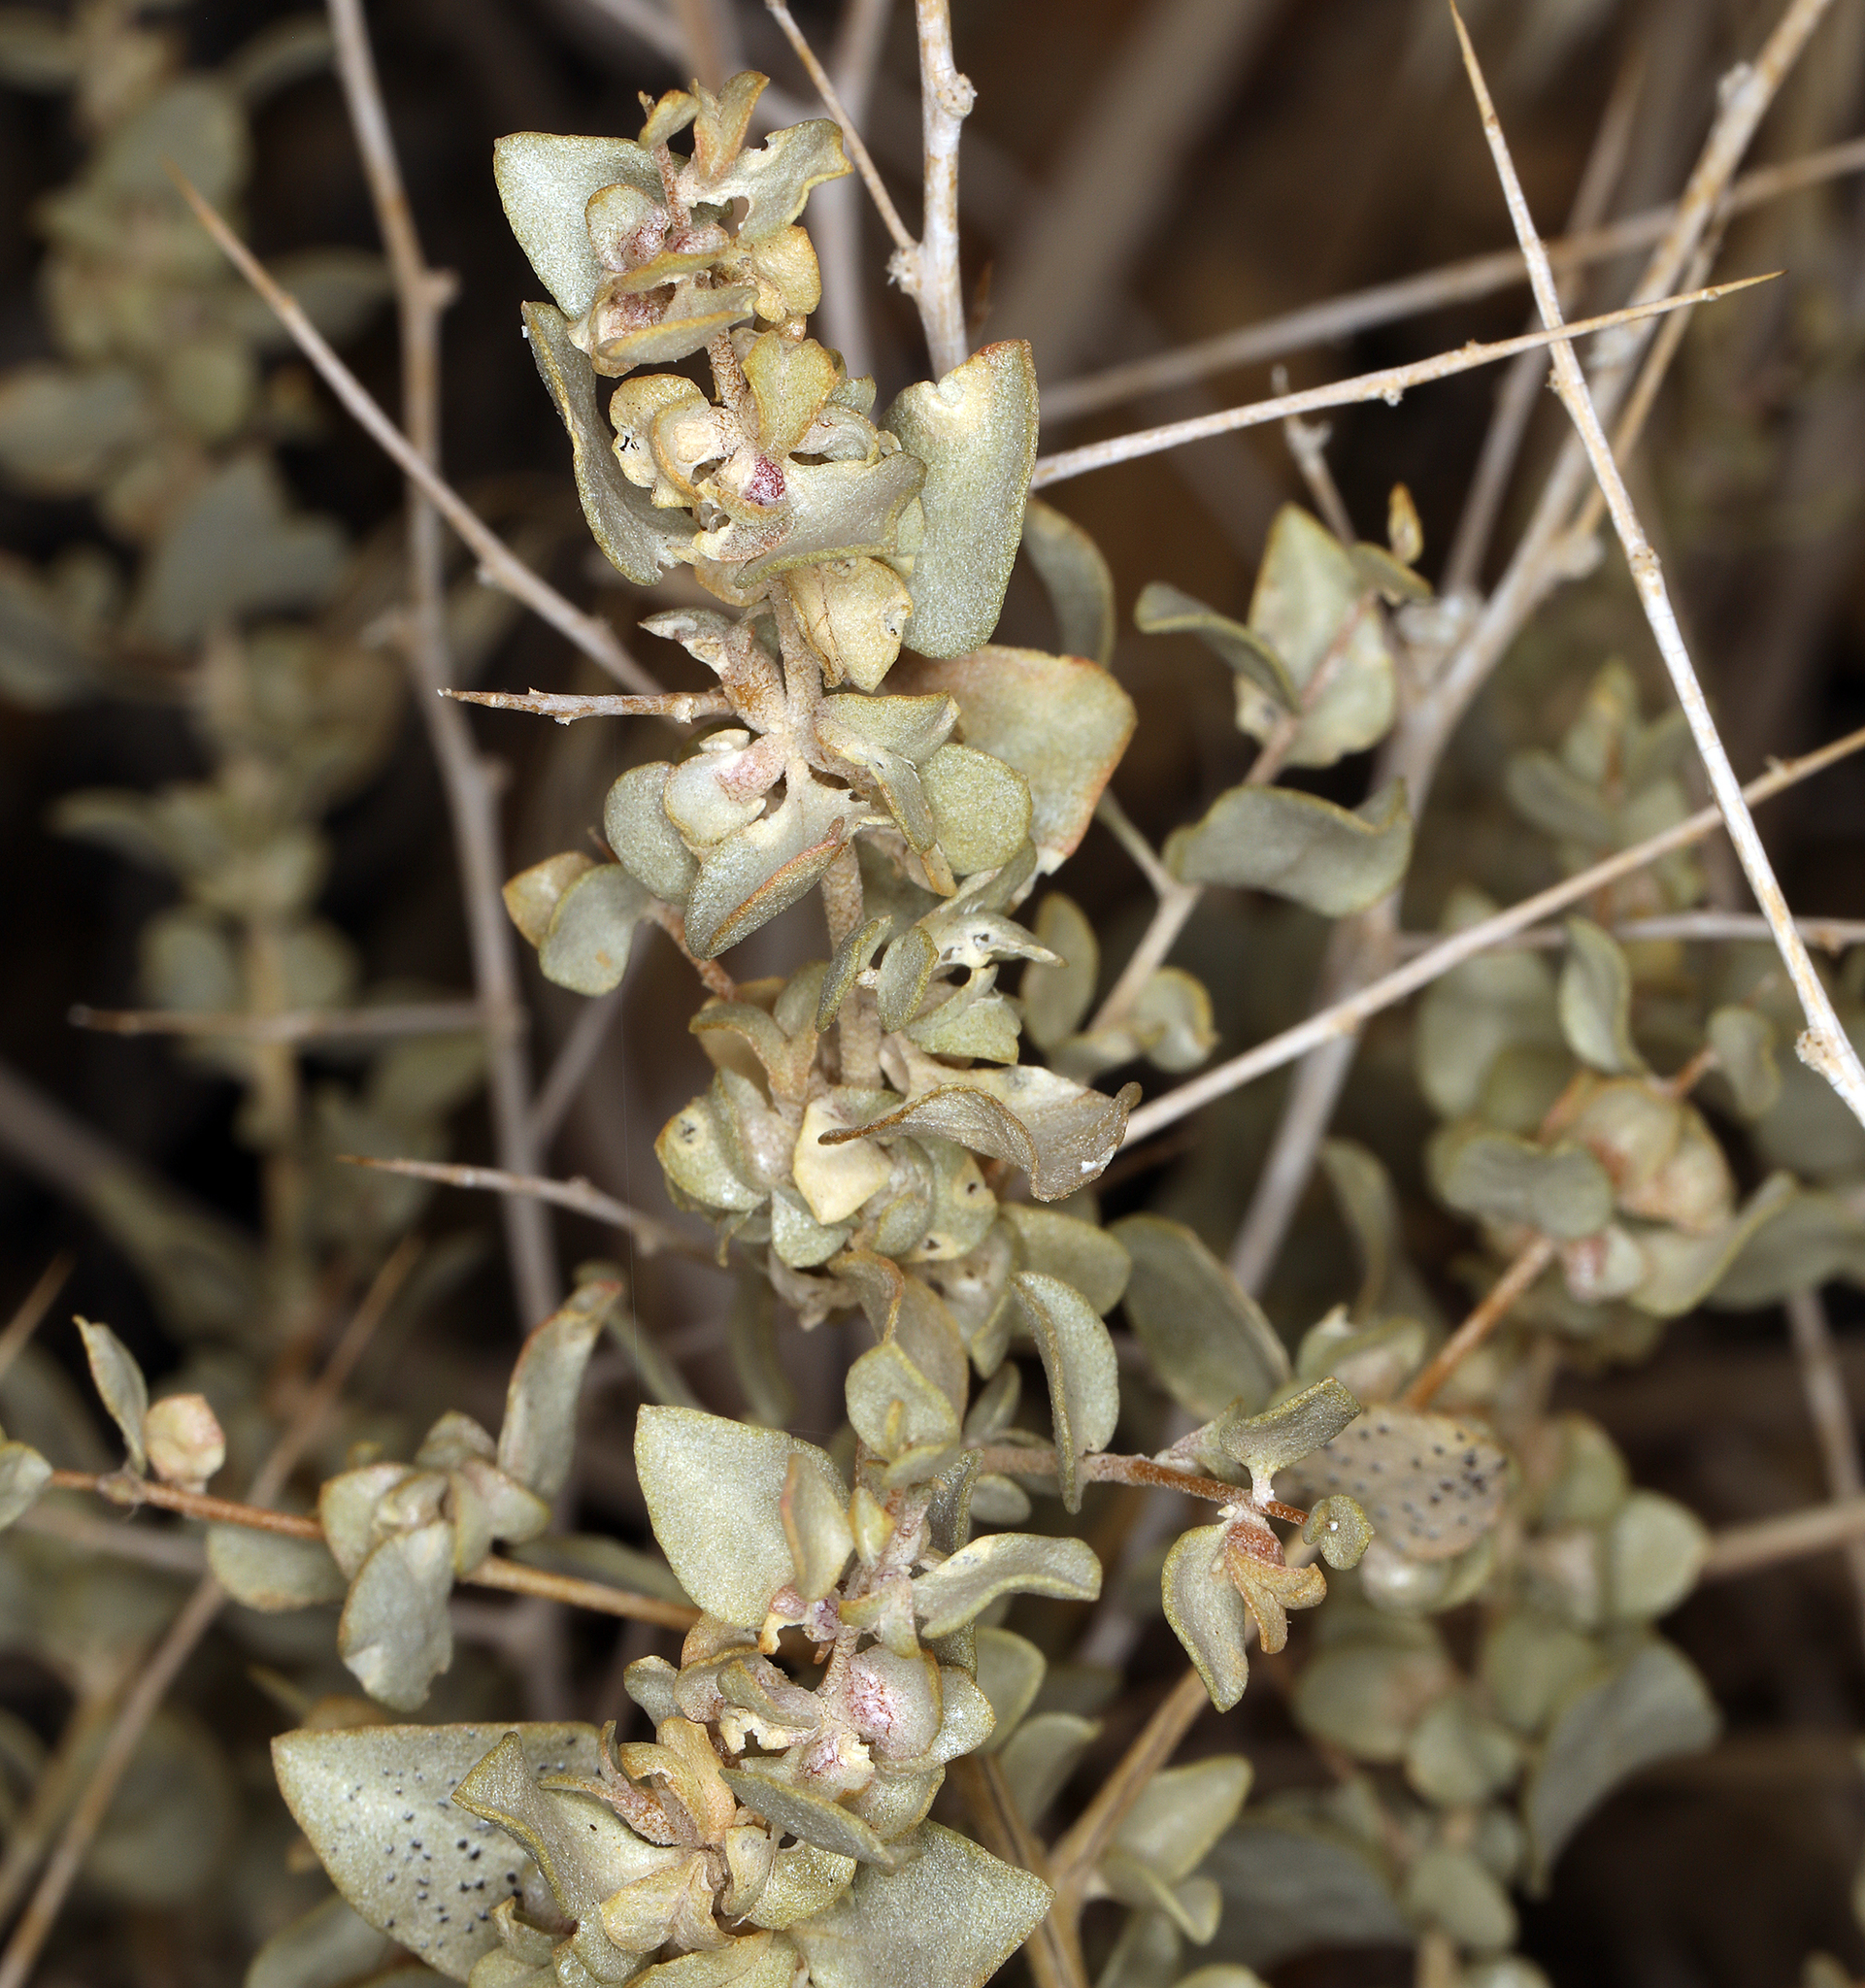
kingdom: Plantae
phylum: Tracheophyta
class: Magnoliopsida
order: Caryophyllales
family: Amaranthaceae
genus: Atriplex
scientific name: Atriplex confertifolia
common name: Shadscale
